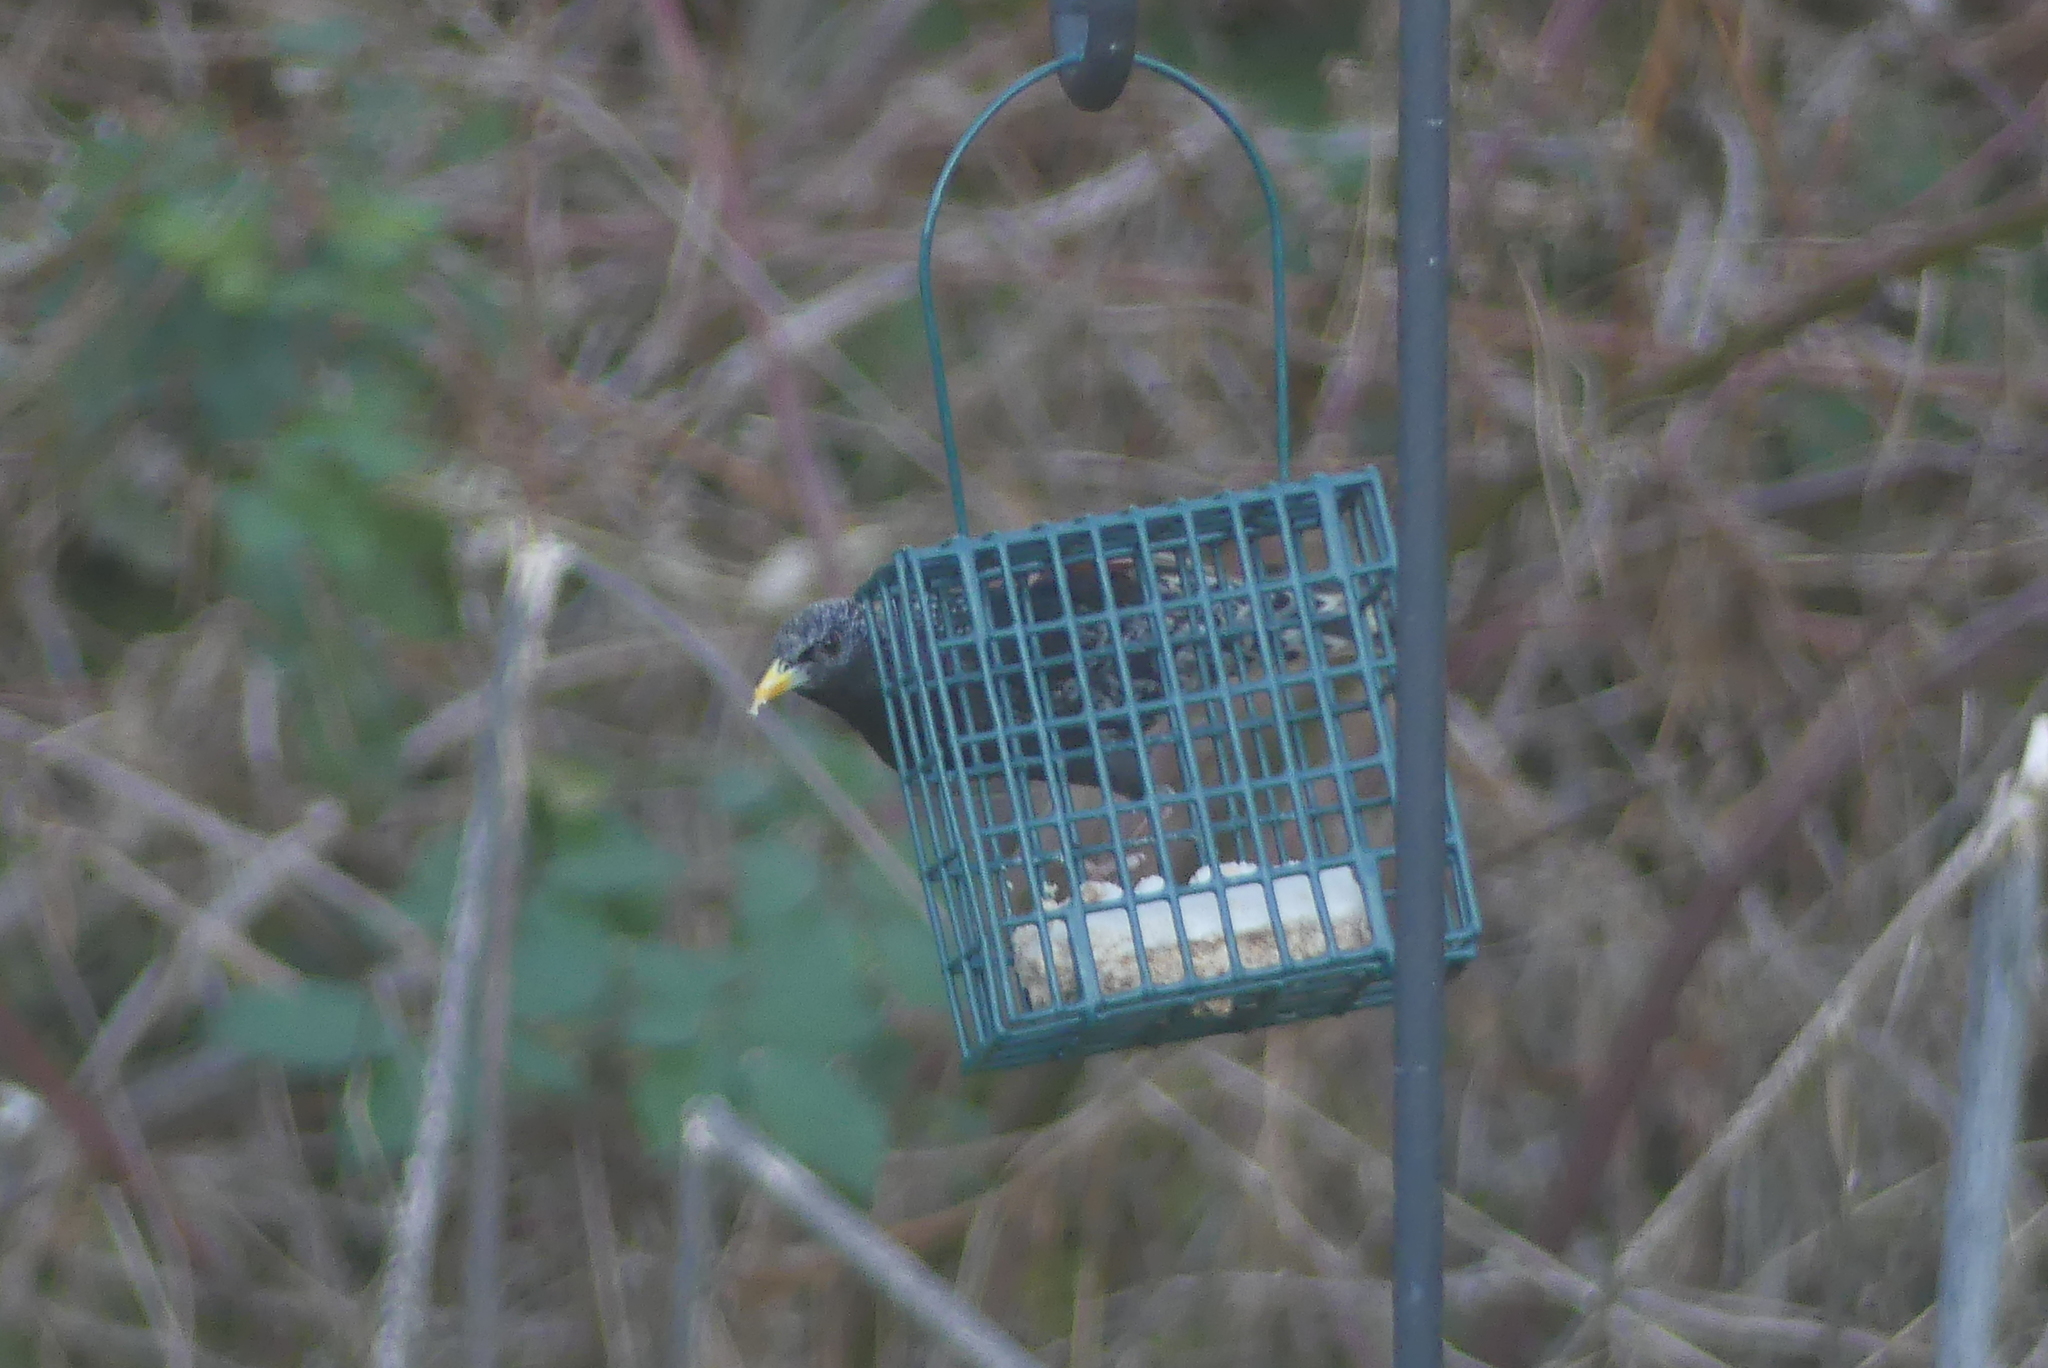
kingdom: Animalia
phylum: Chordata
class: Aves
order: Passeriformes
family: Sturnidae
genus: Sturnus
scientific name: Sturnus vulgaris
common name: Common starling
